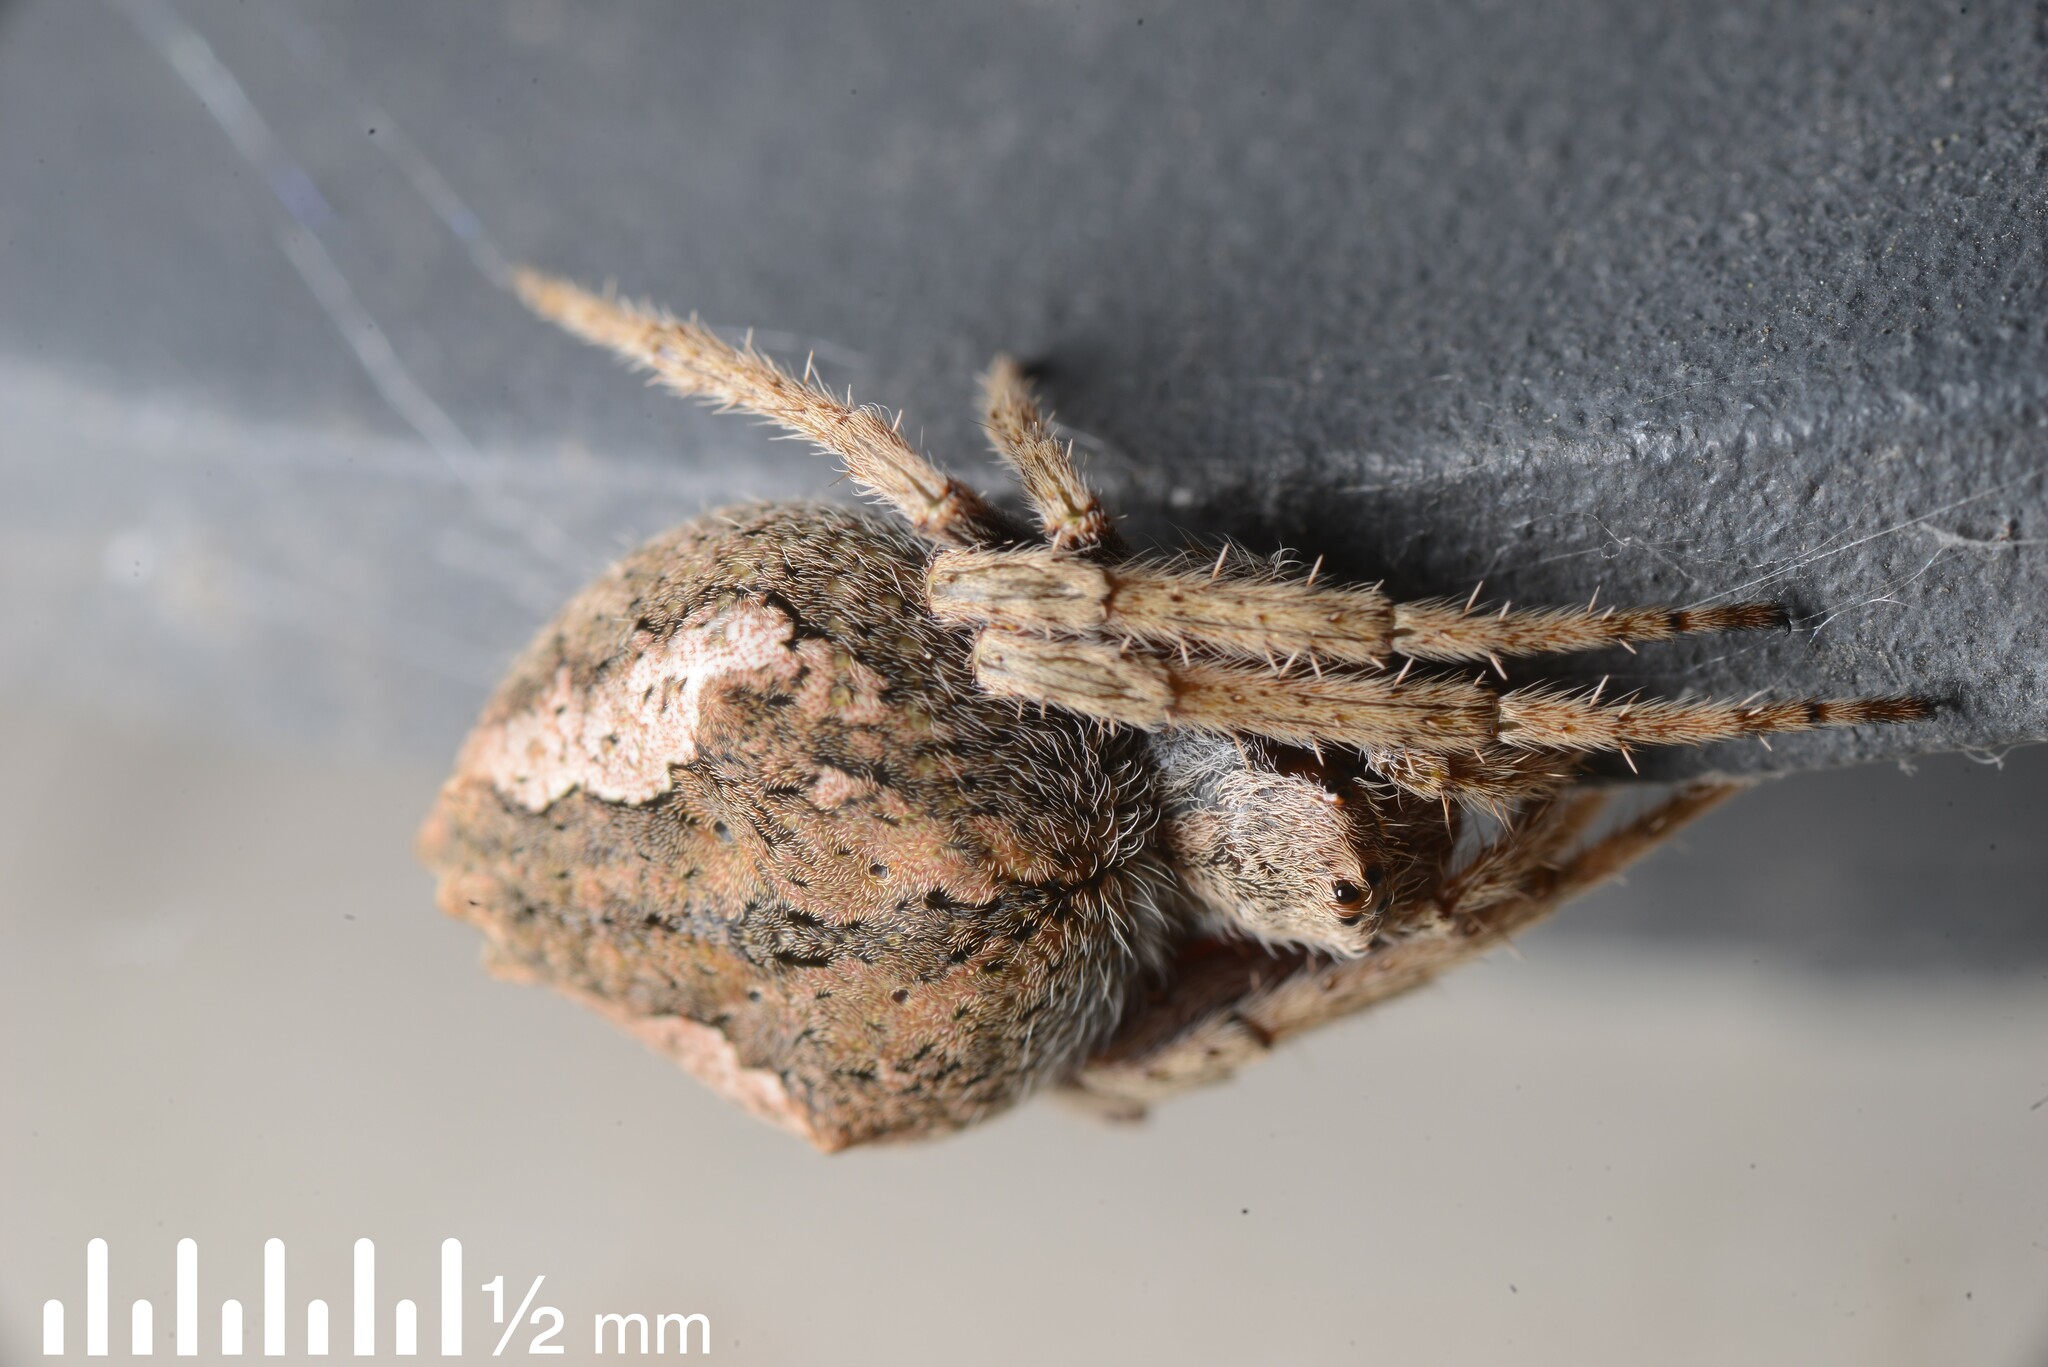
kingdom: Animalia
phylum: Arthropoda
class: Arachnida
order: Araneae
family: Araneidae
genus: Eriophora
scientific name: Eriophora pustulosa
